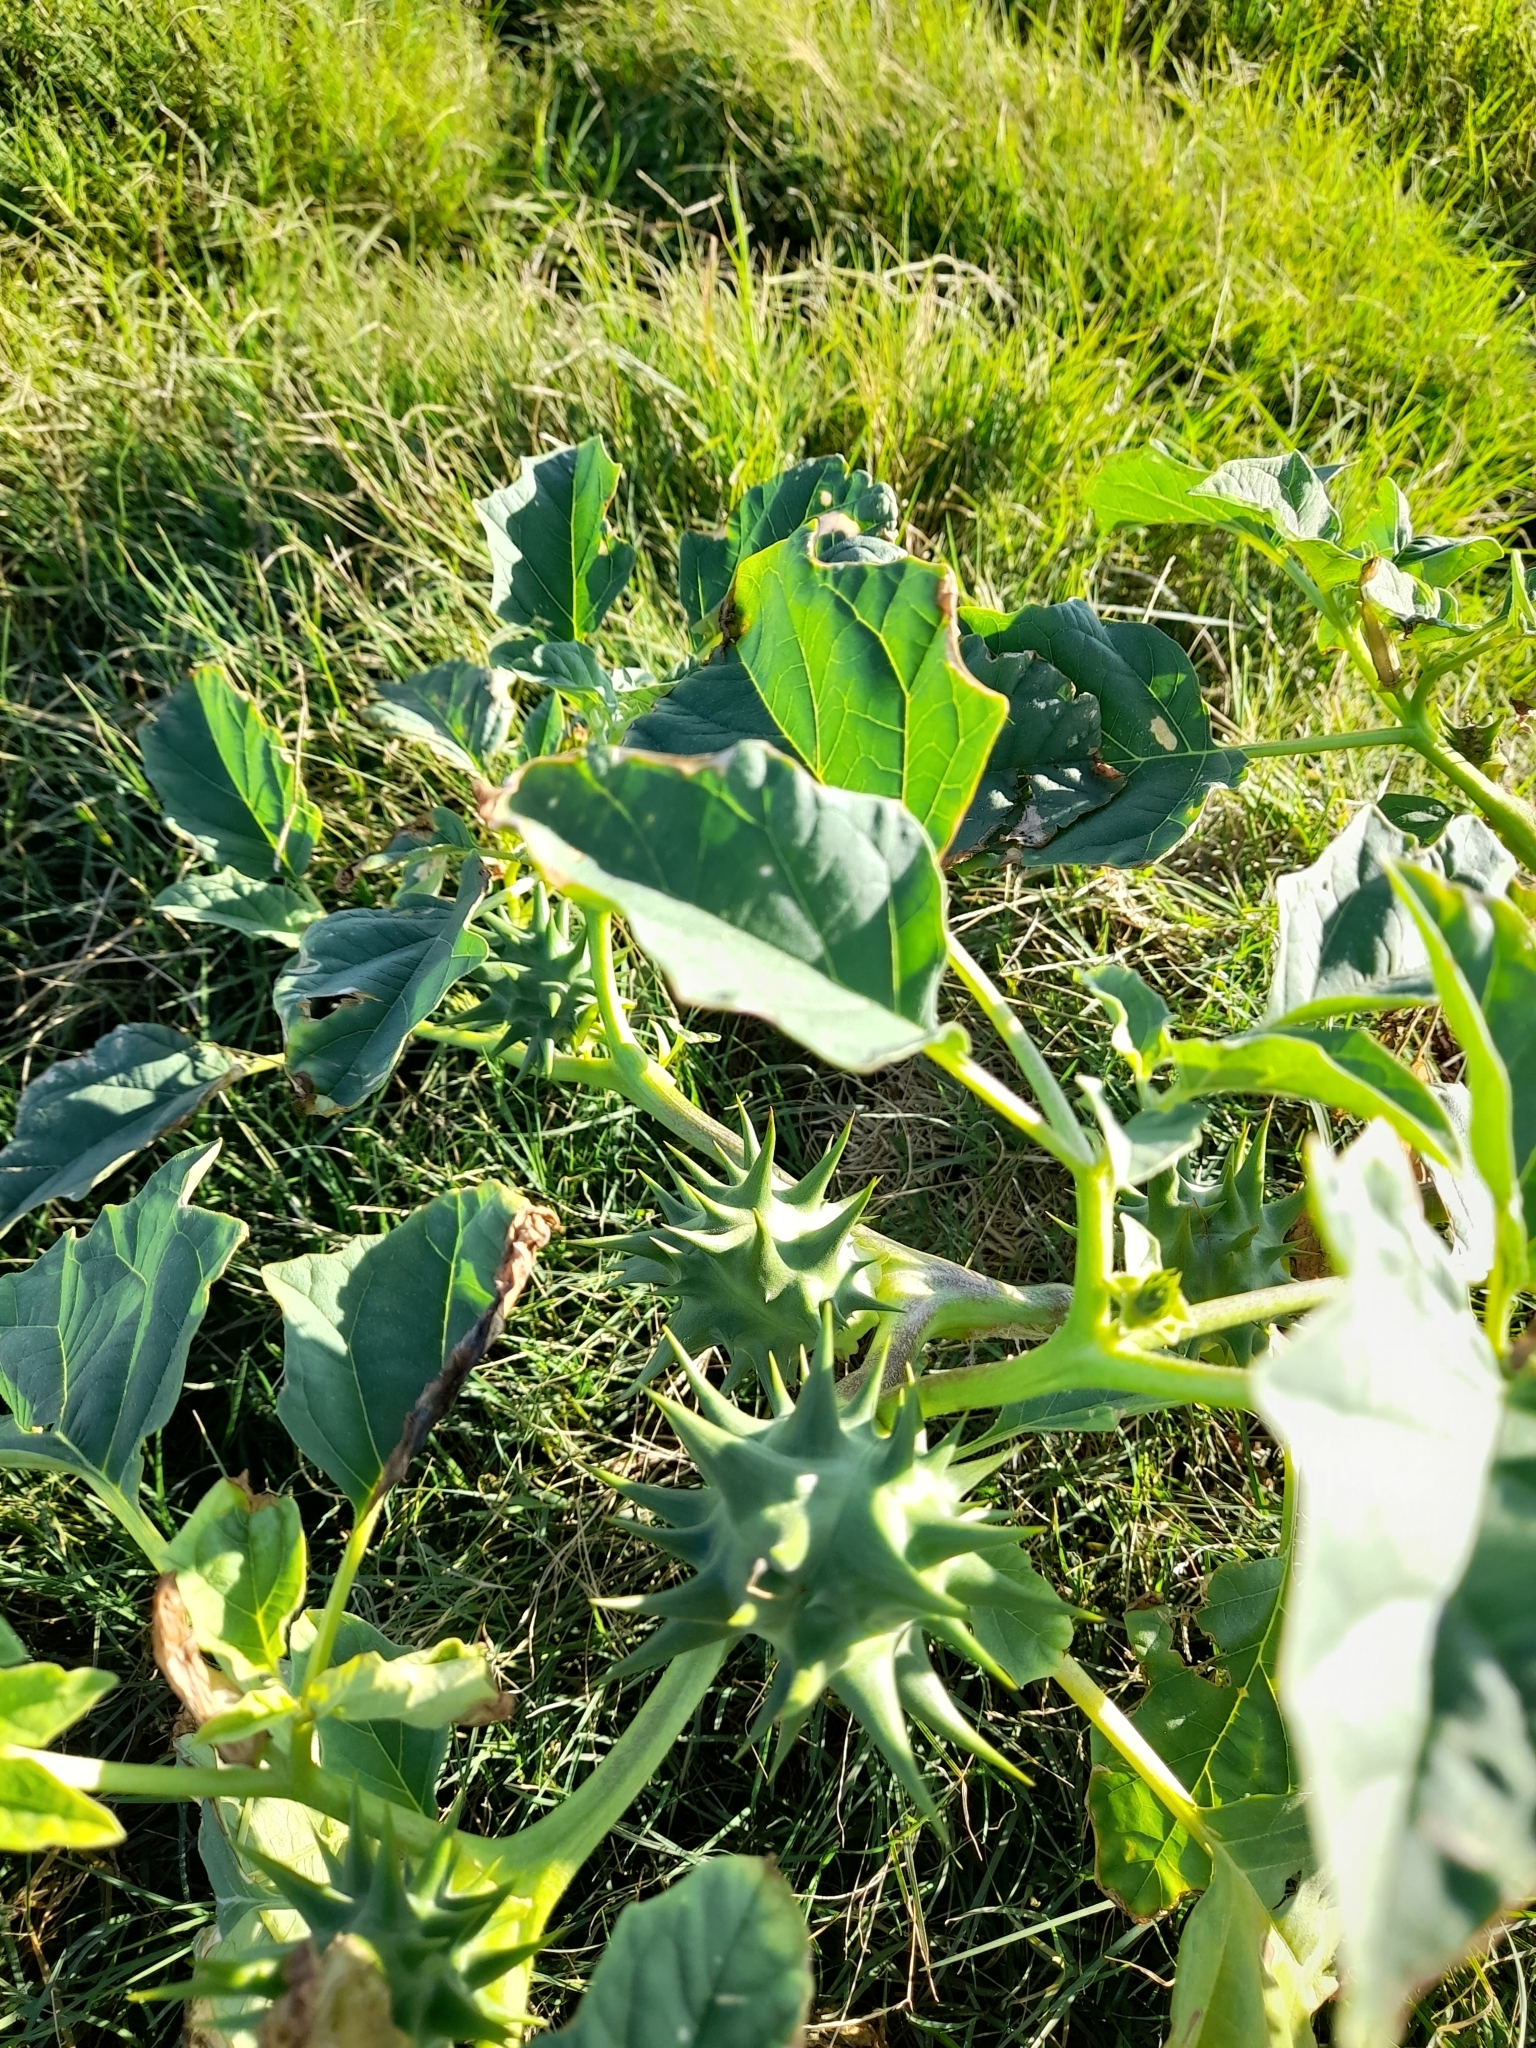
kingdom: Plantae
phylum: Tracheophyta
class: Magnoliopsida
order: Solanales
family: Solanaceae
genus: Datura
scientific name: Datura ferox
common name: Angel's-trumpets
